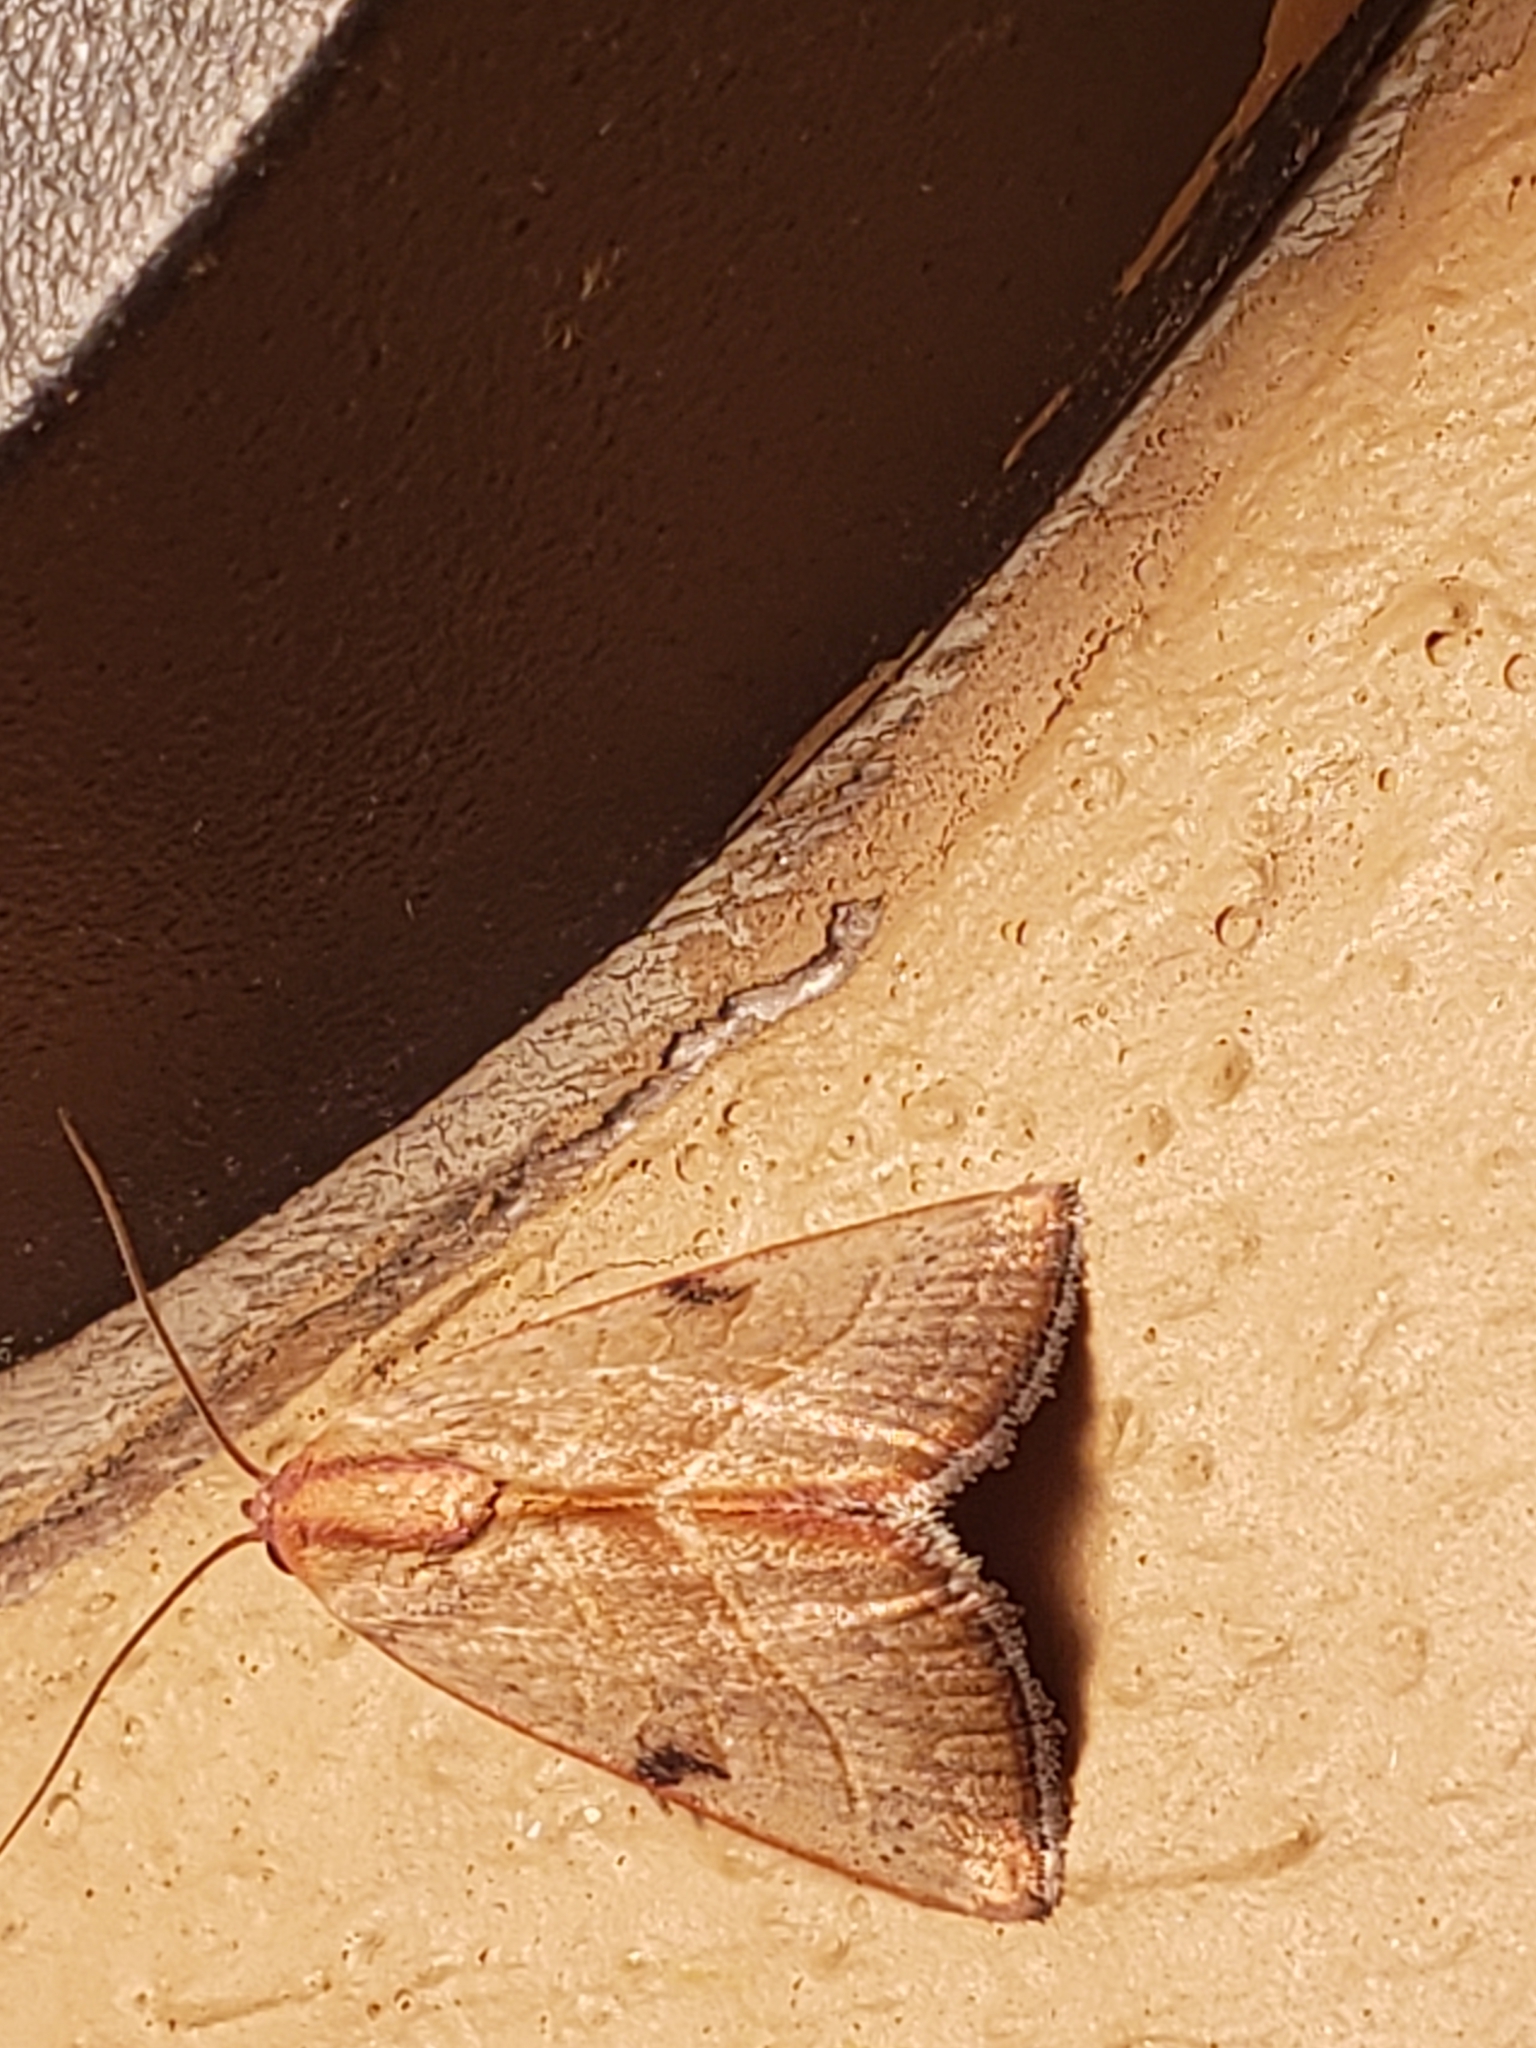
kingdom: Animalia
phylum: Arthropoda
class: Insecta
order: Lepidoptera
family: Noctuidae
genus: Galgula
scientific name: Galgula partita
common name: Wedgeling
